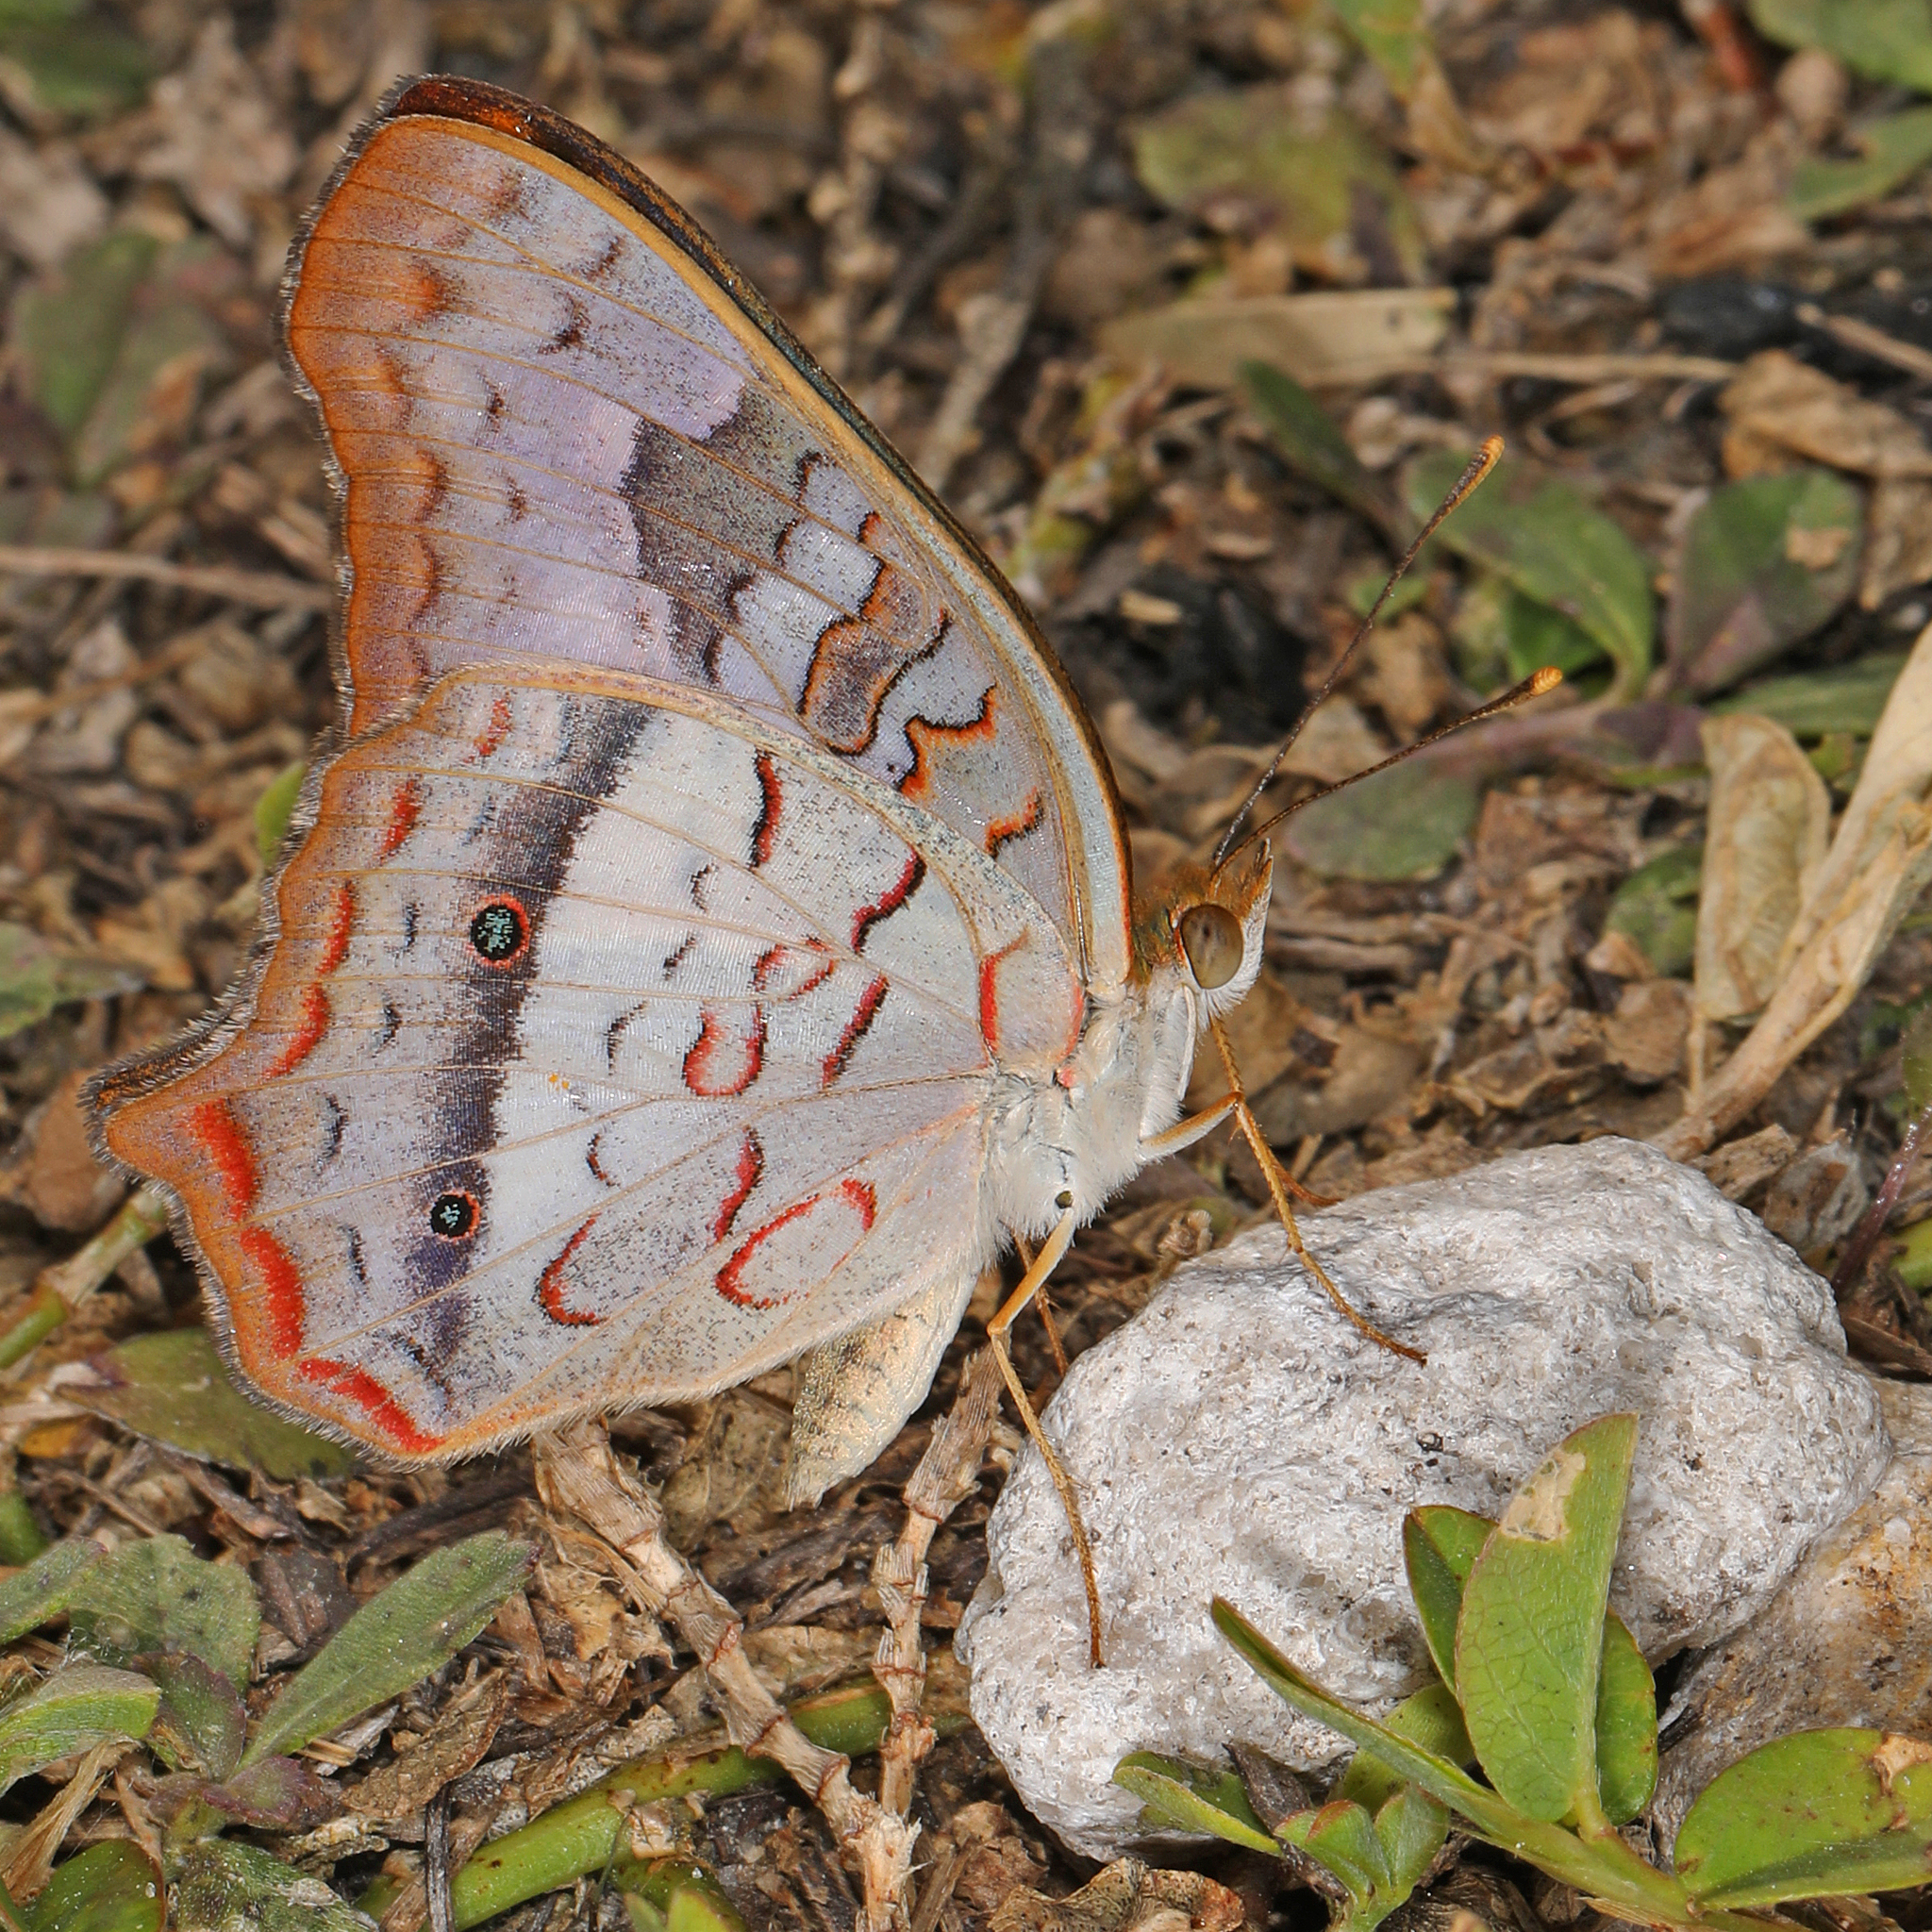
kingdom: Animalia
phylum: Arthropoda
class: Insecta
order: Lepidoptera
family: Nymphalidae
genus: Anartia
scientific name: Anartia jatrophae
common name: White peacock
